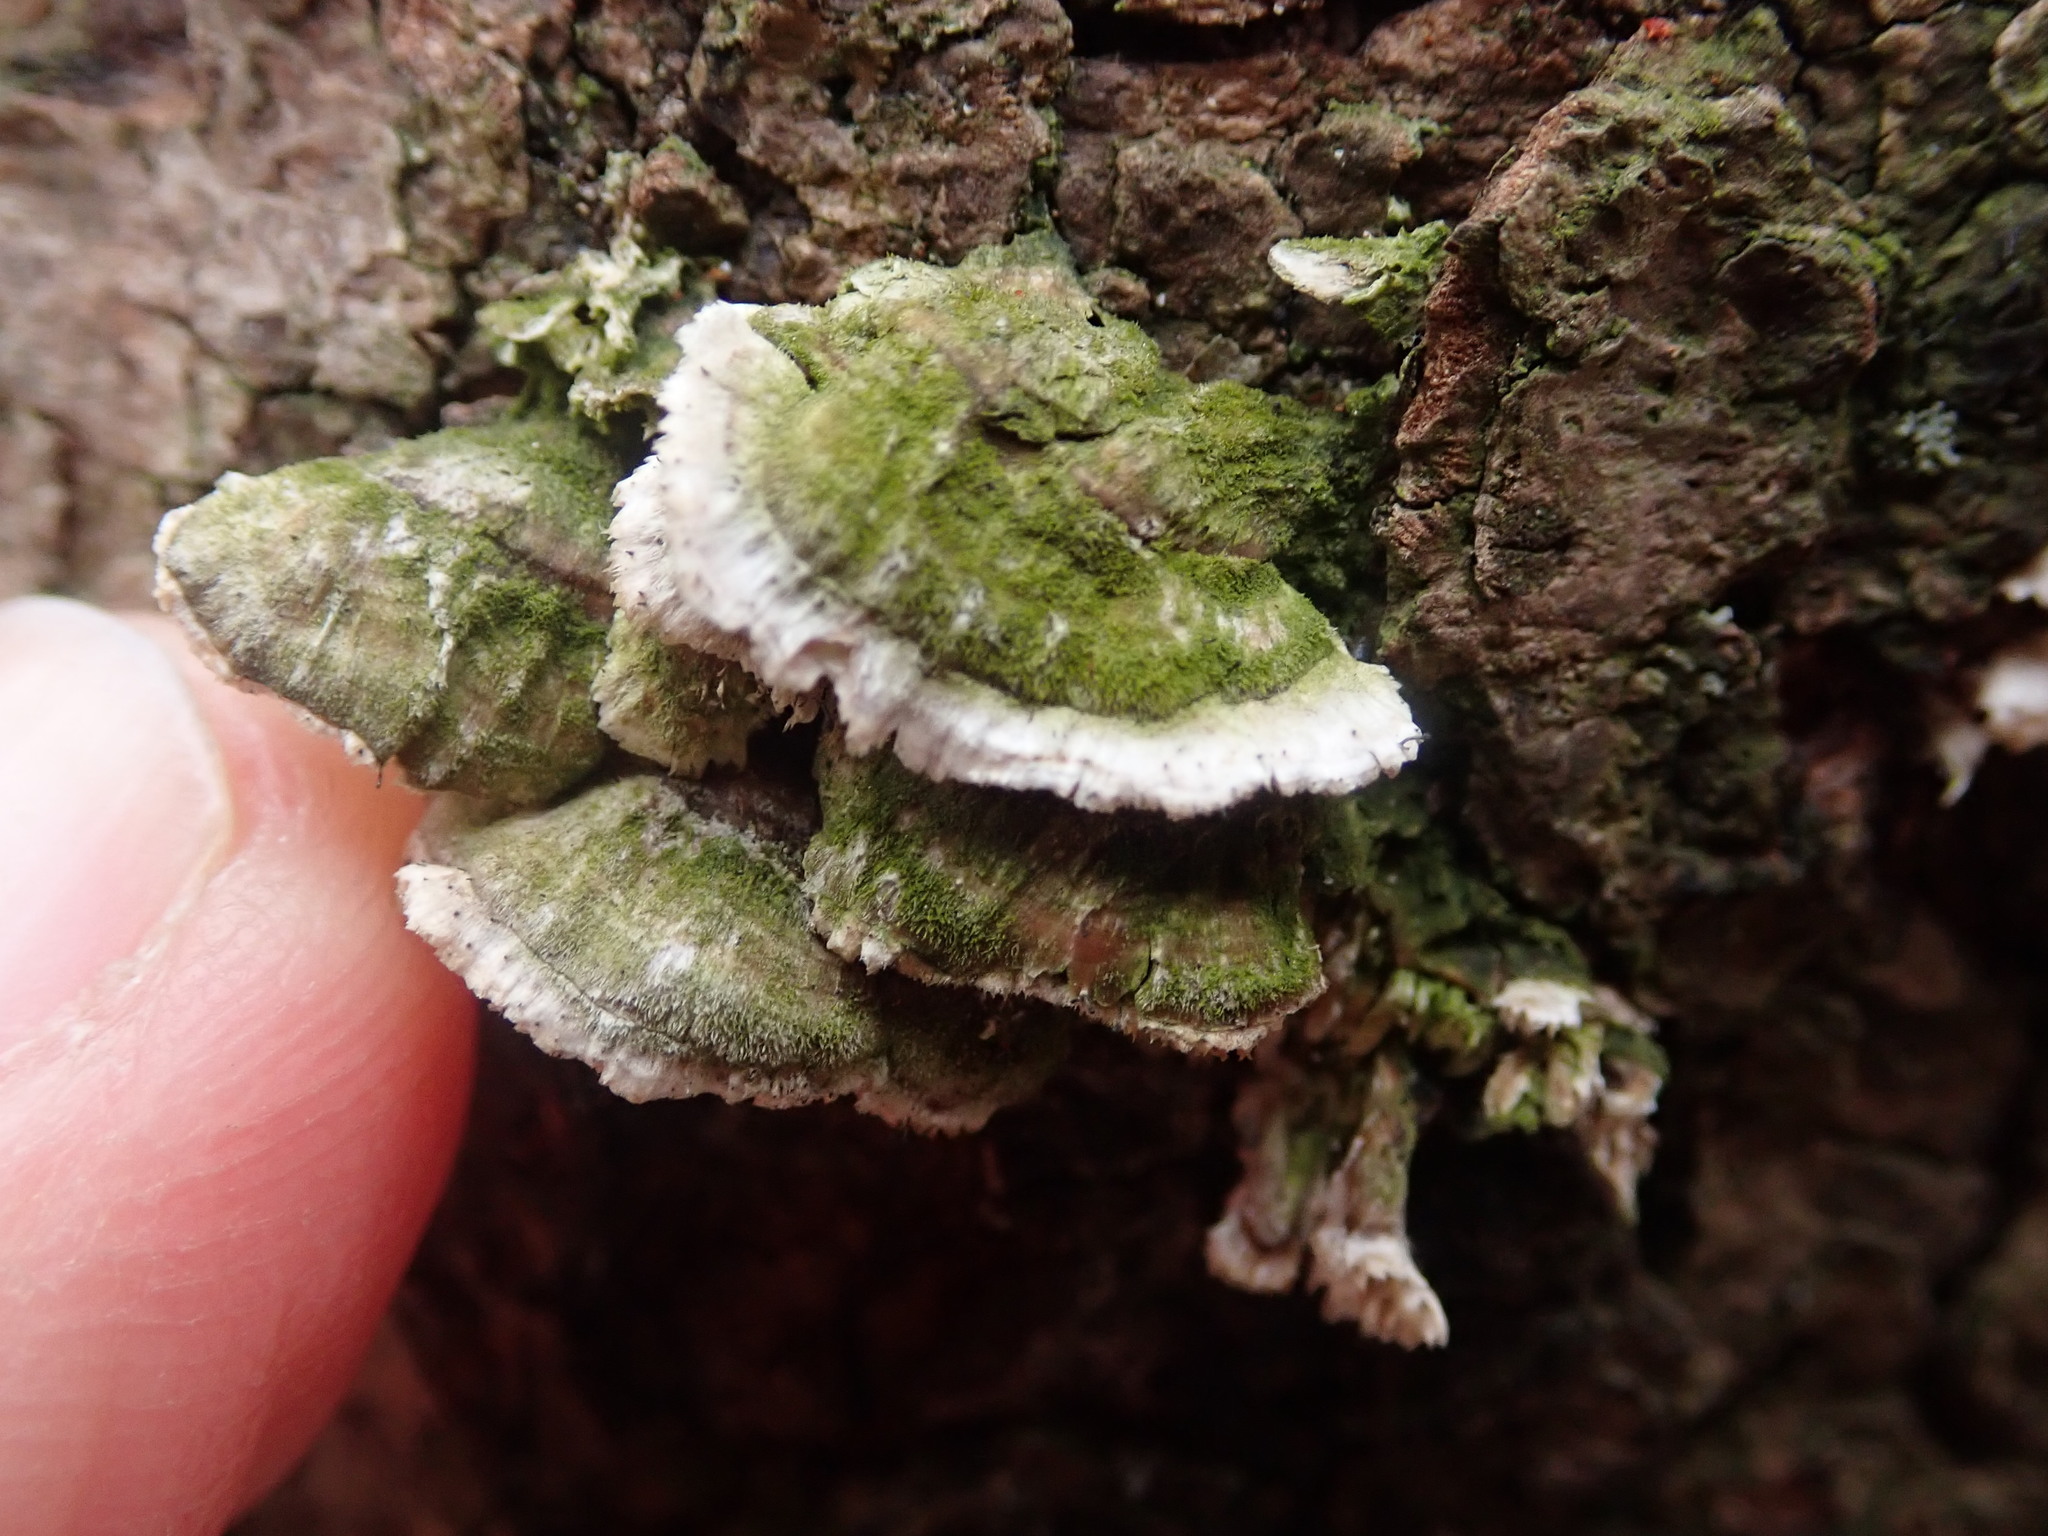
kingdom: Fungi
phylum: Ascomycota
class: Eurotiomycetes
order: Mycocaliciales
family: Mycocaliciaceae
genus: Phaeocalicium
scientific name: Phaeocalicium polyporaeum
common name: Fairy pins
